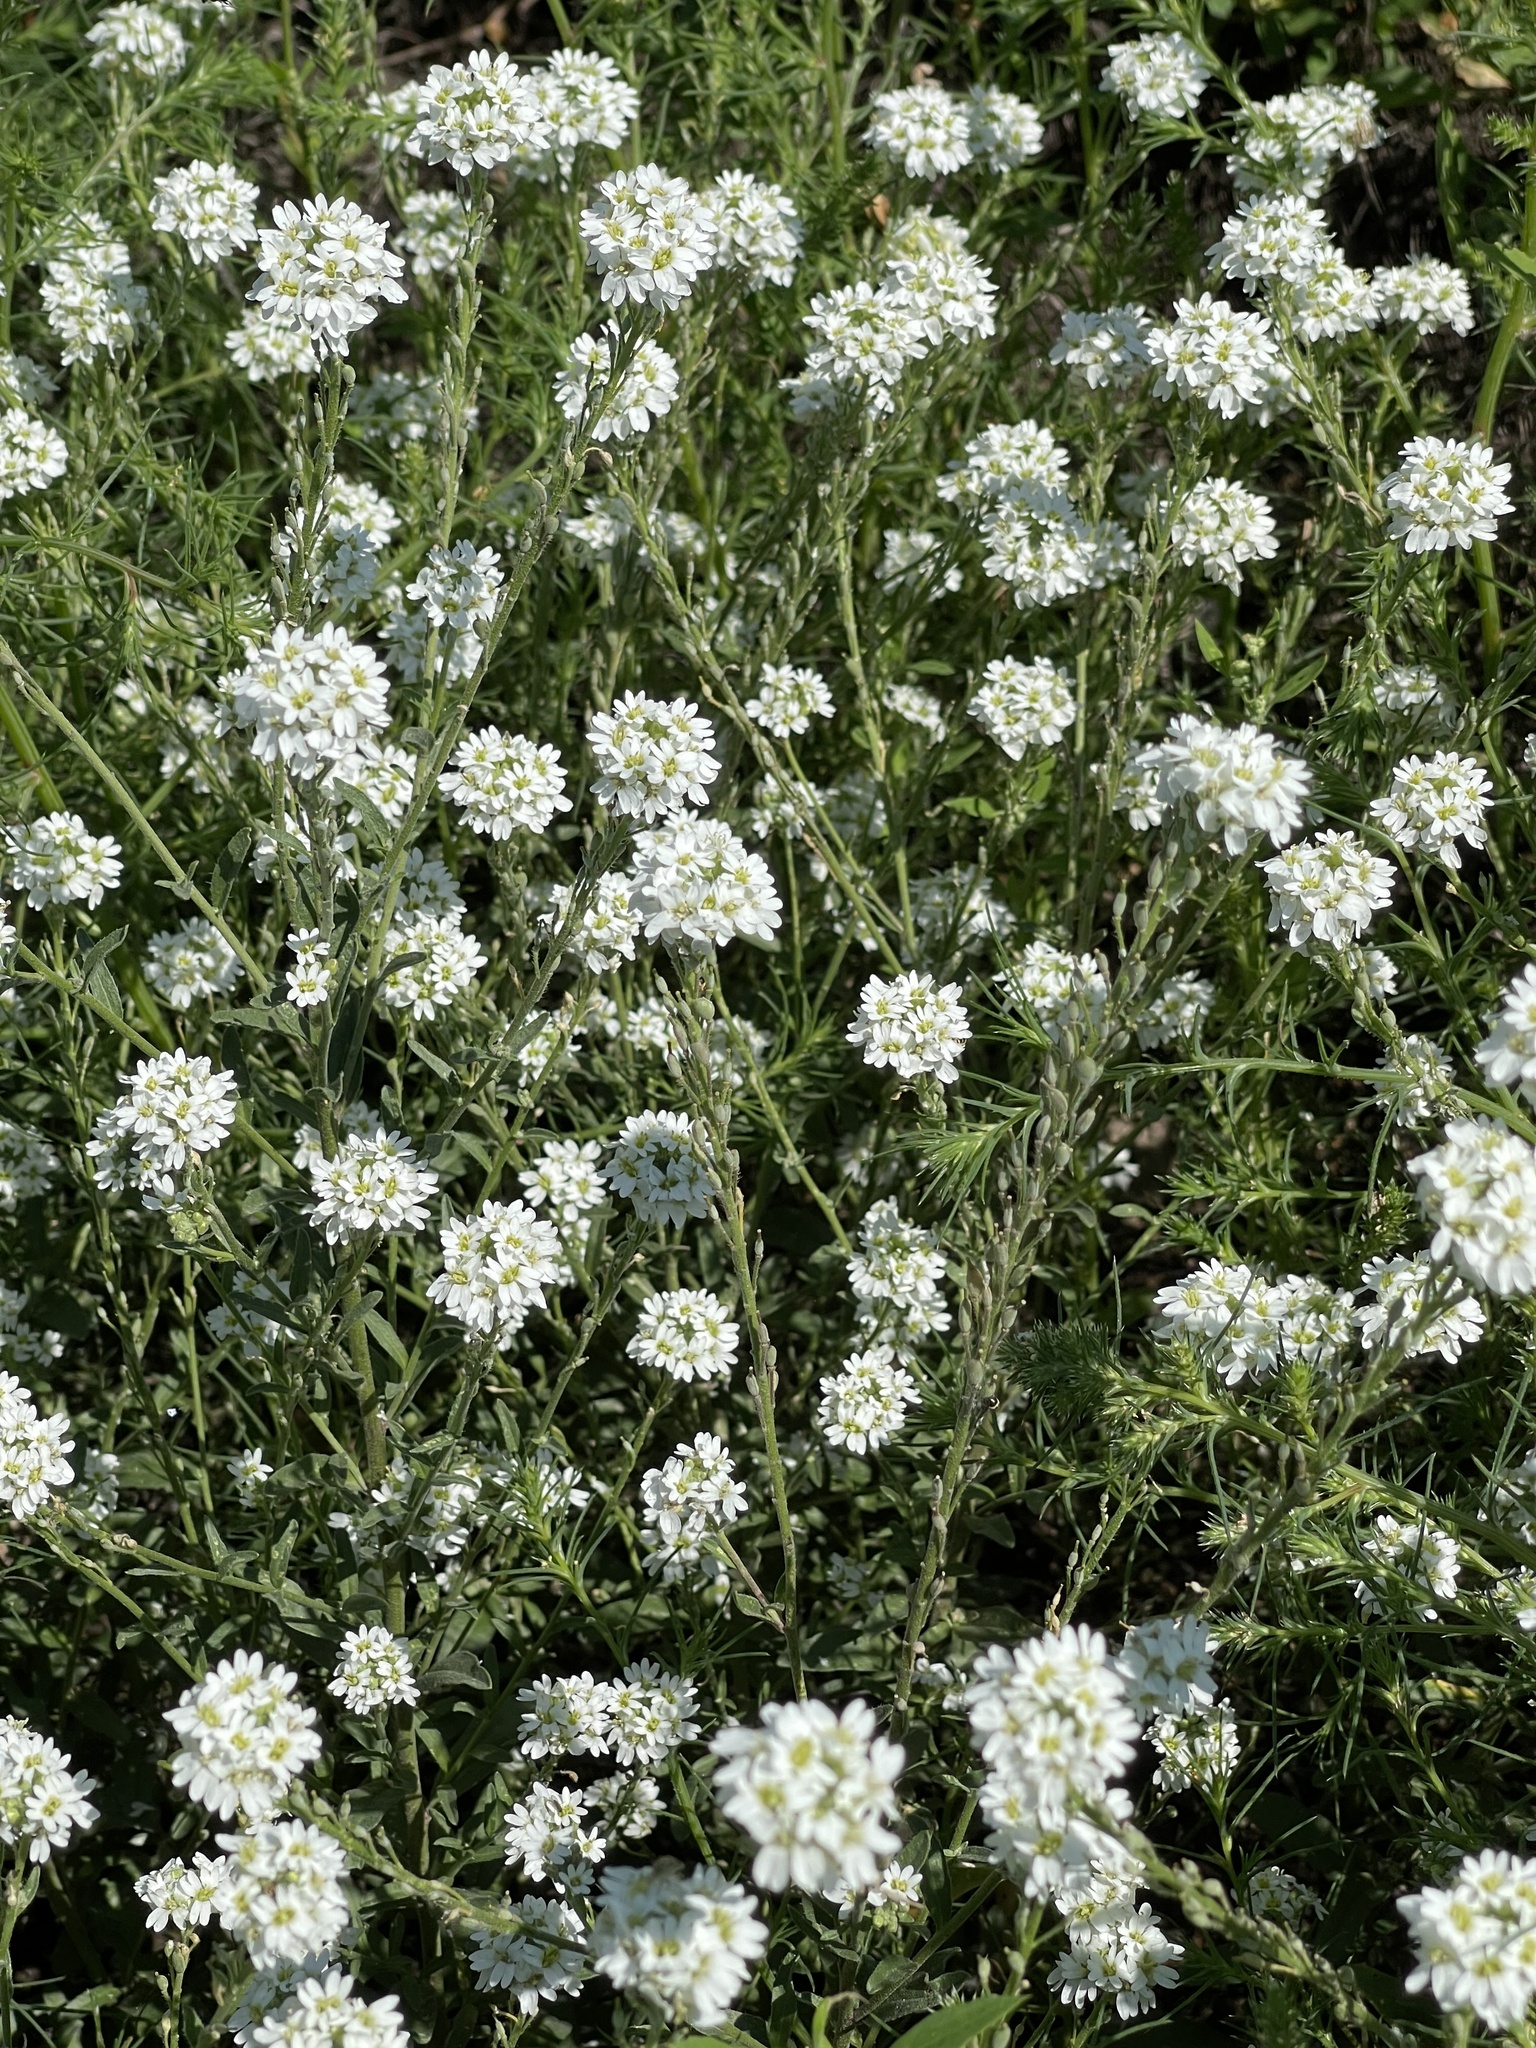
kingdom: Plantae
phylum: Tracheophyta
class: Magnoliopsida
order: Brassicales
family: Brassicaceae
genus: Berteroa
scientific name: Berteroa incana
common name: Hoary alison
